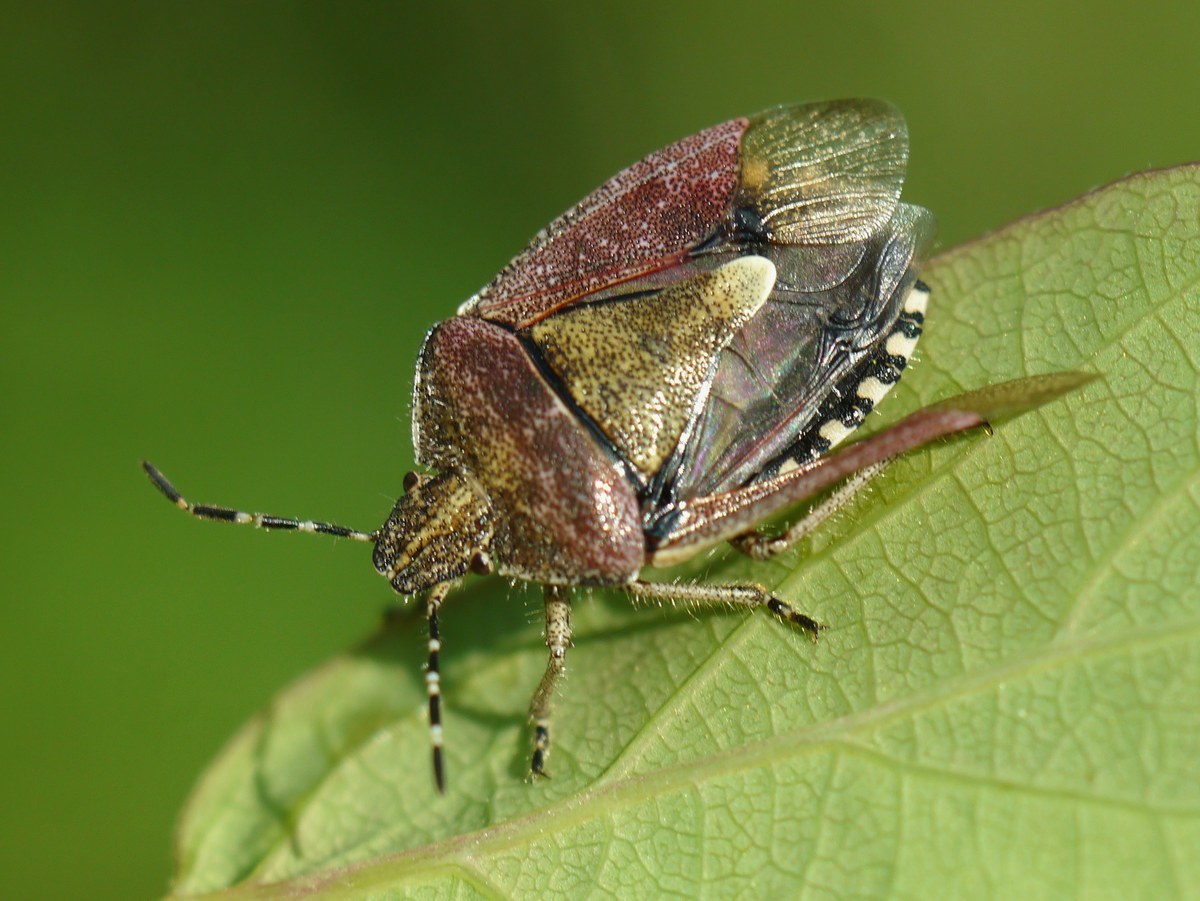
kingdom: Animalia
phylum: Arthropoda
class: Insecta
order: Hemiptera
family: Pentatomidae
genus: Dolycoris
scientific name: Dolycoris baccarum
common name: Sloe bug
